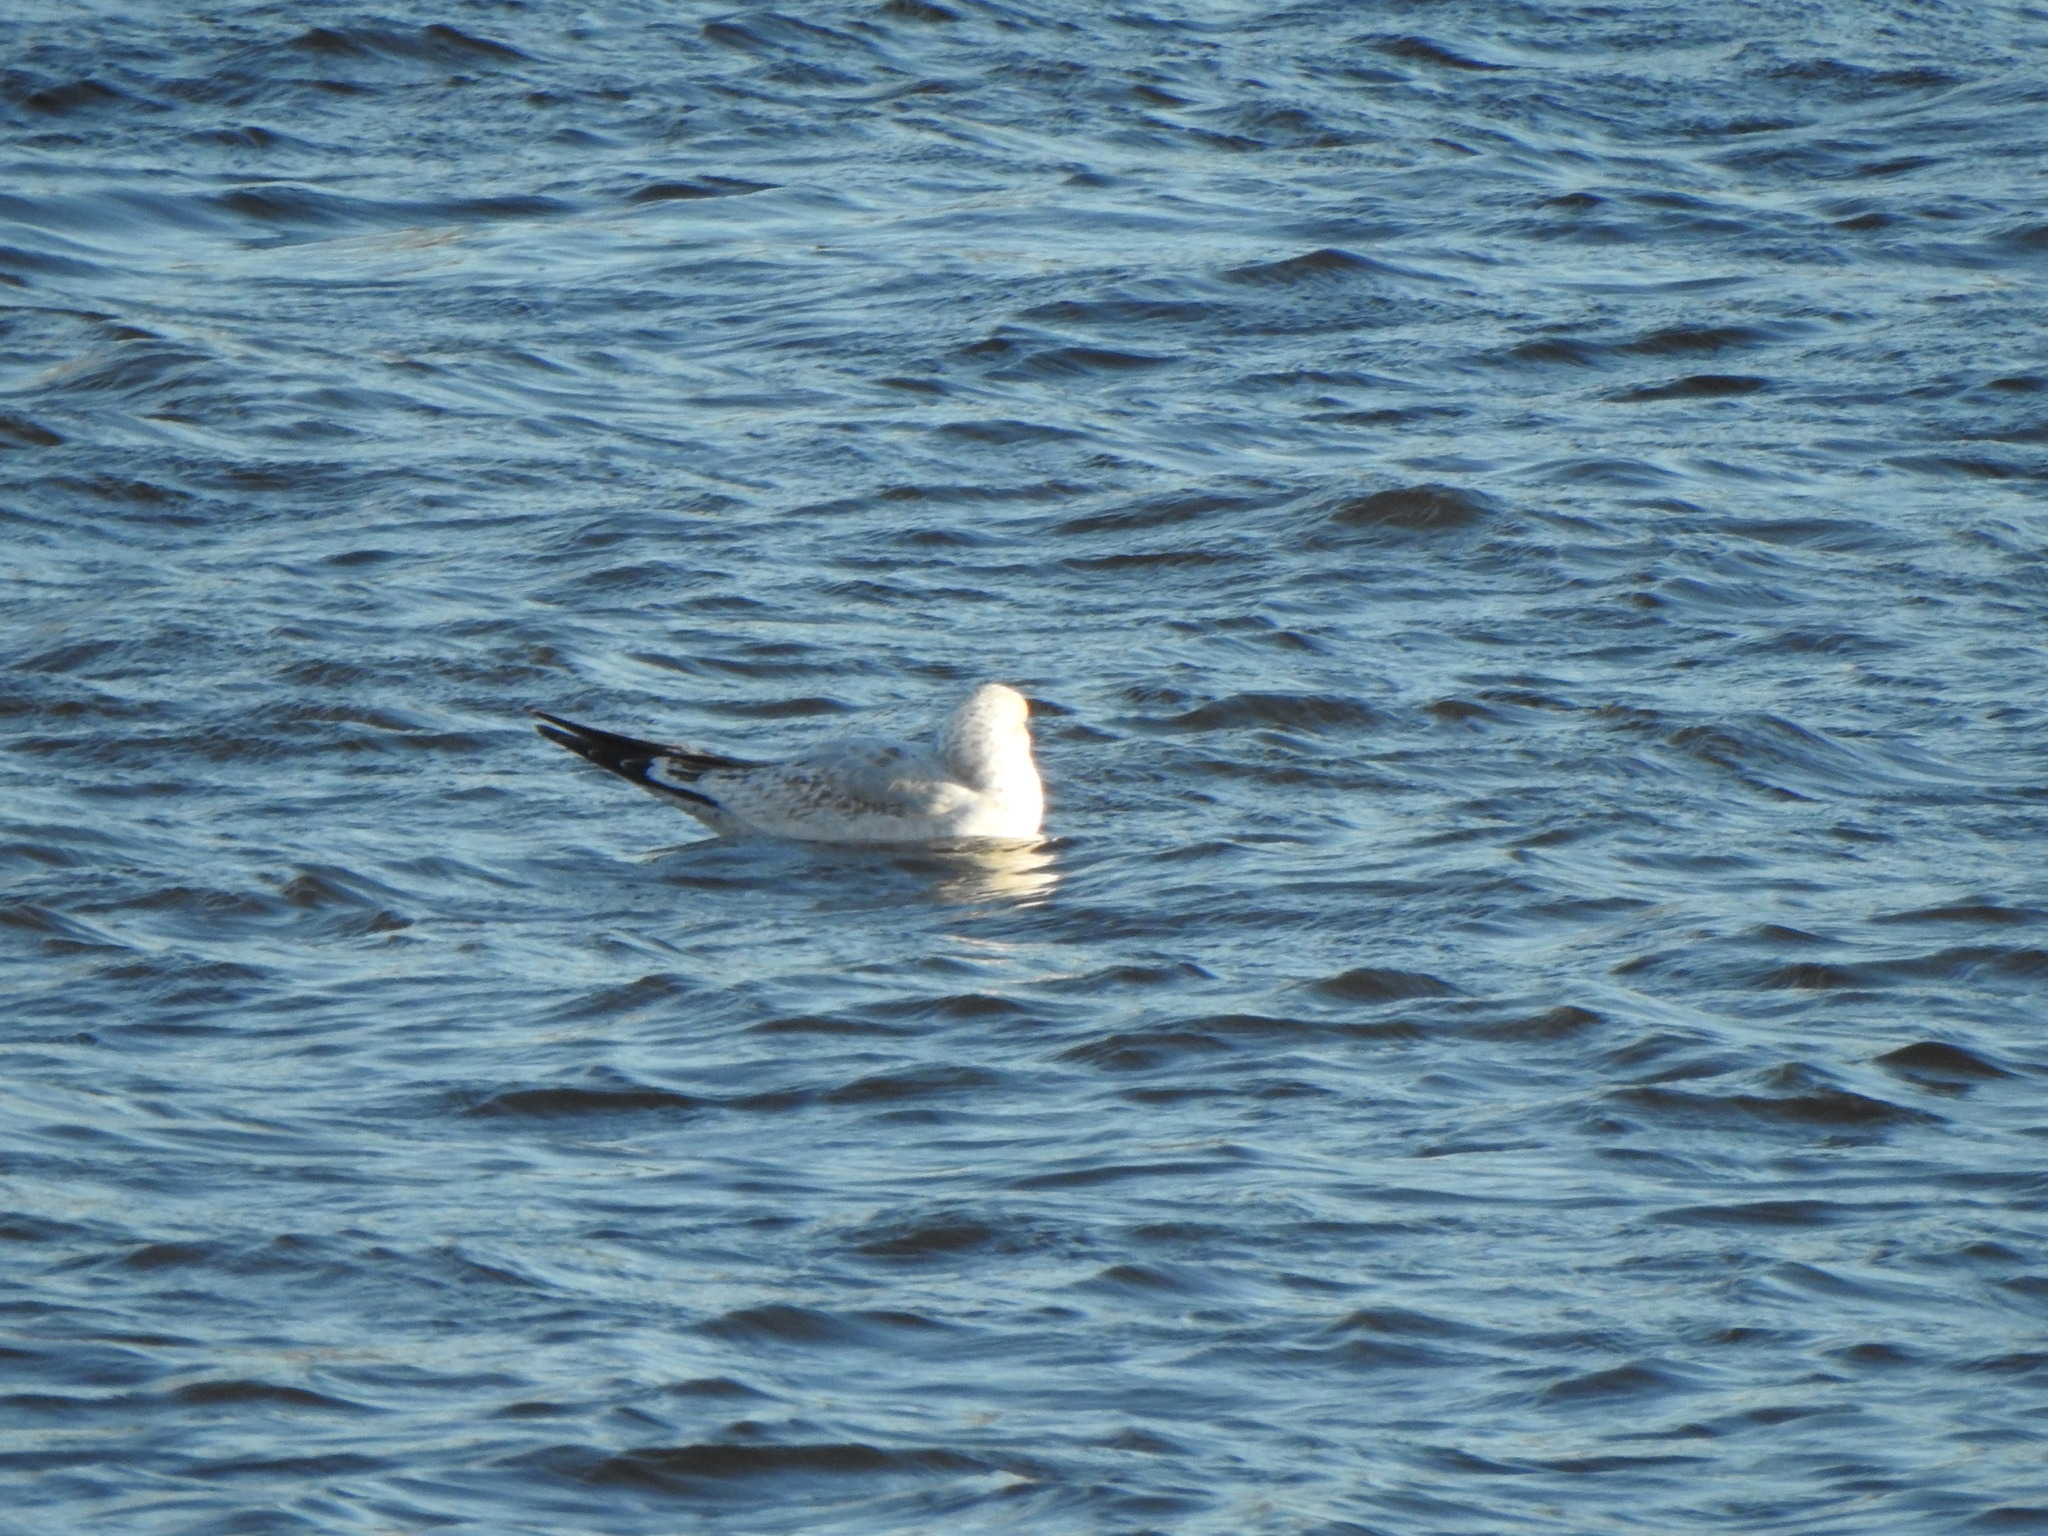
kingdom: Animalia
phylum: Chordata
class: Aves
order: Charadriiformes
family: Laridae
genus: Larus
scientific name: Larus delawarensis
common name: Ring-billed gull
